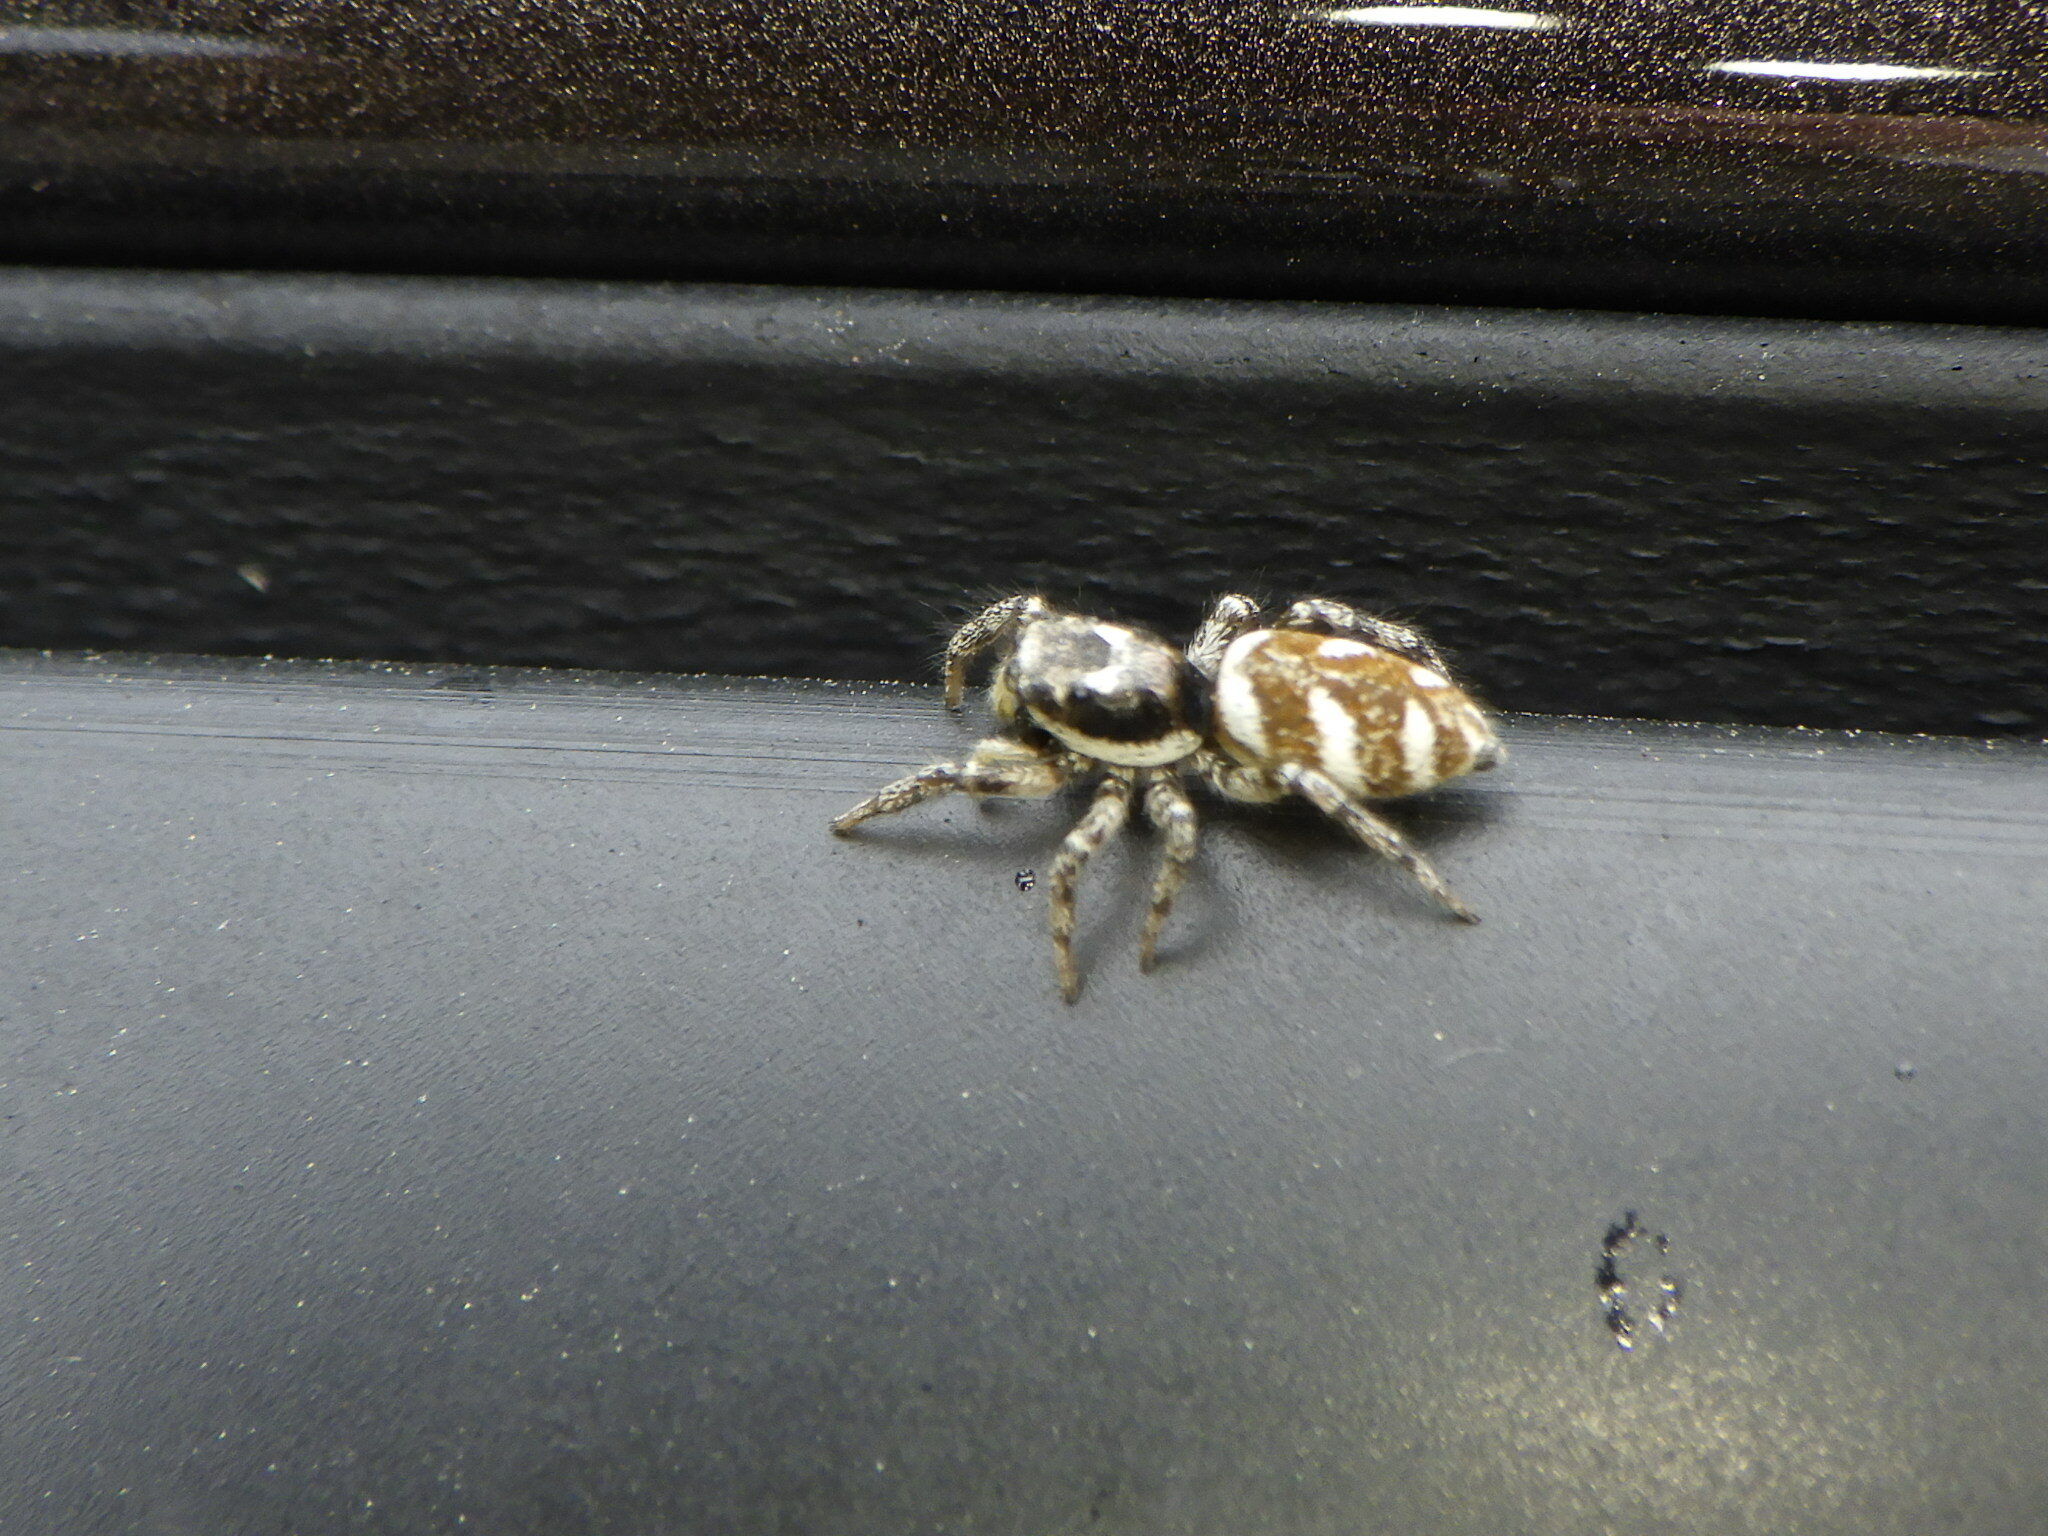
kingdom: Animalia
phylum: Arthropoda
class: Arachnida
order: Araneae
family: Salticidae
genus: Salticus
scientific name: Salticus scenicus
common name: Zebra jumper
